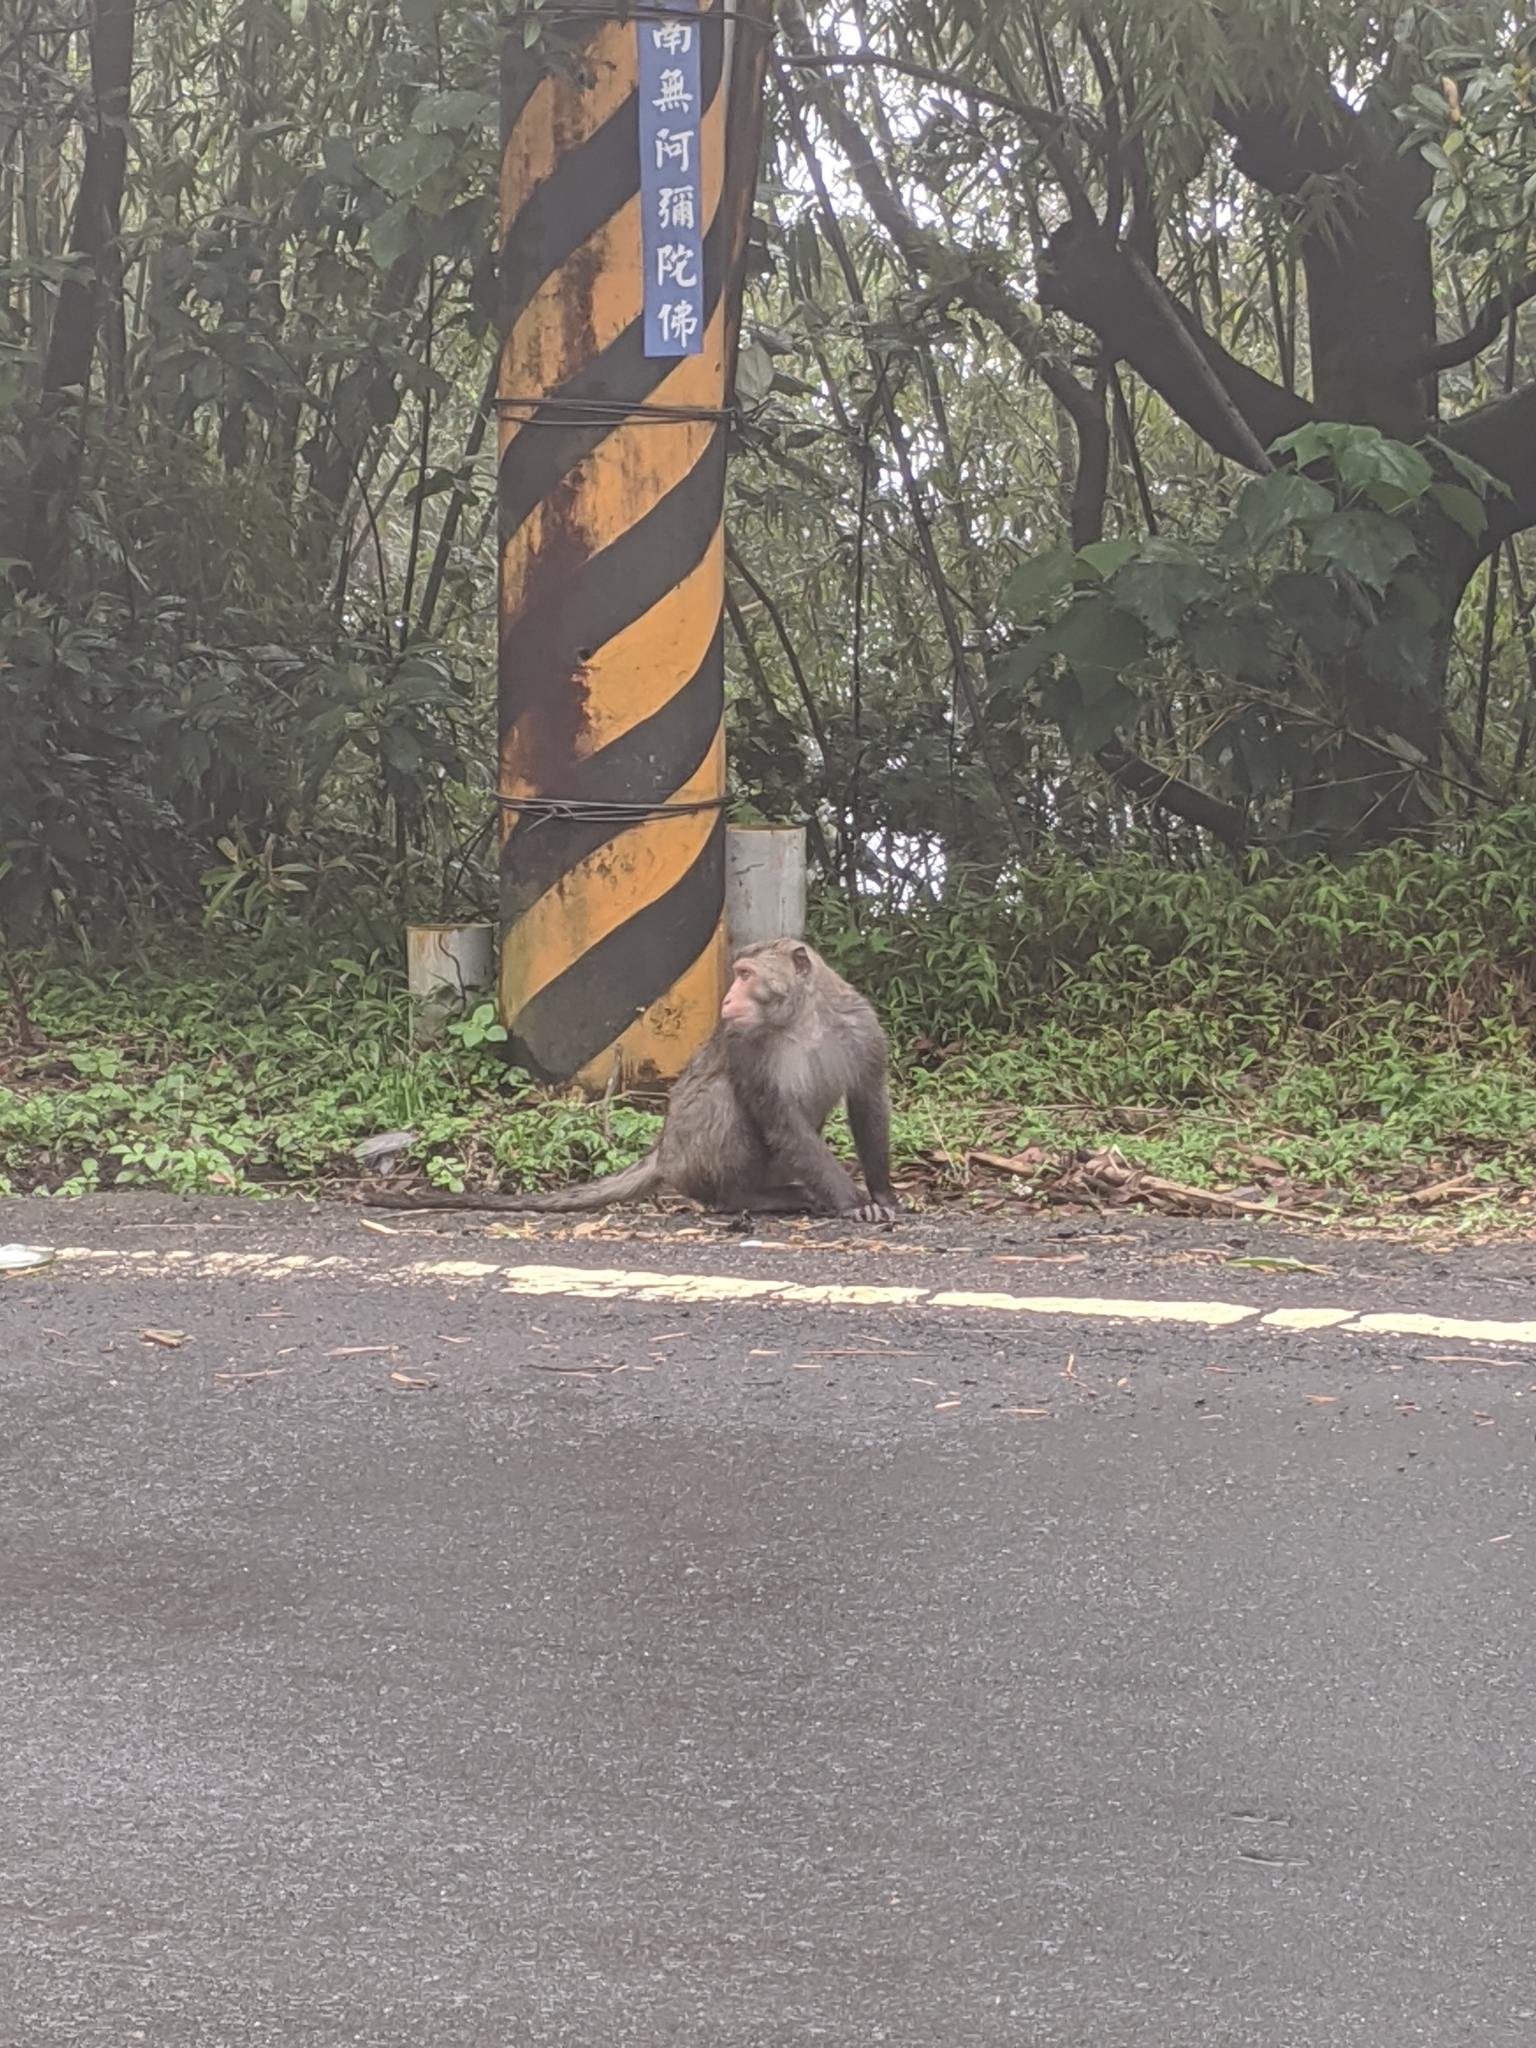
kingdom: Animalia
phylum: Chordata
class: Mammalia
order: Primates
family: Cercopithecidae
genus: Macaca
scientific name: Macaca cyclopis
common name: Formosan rock macaque
